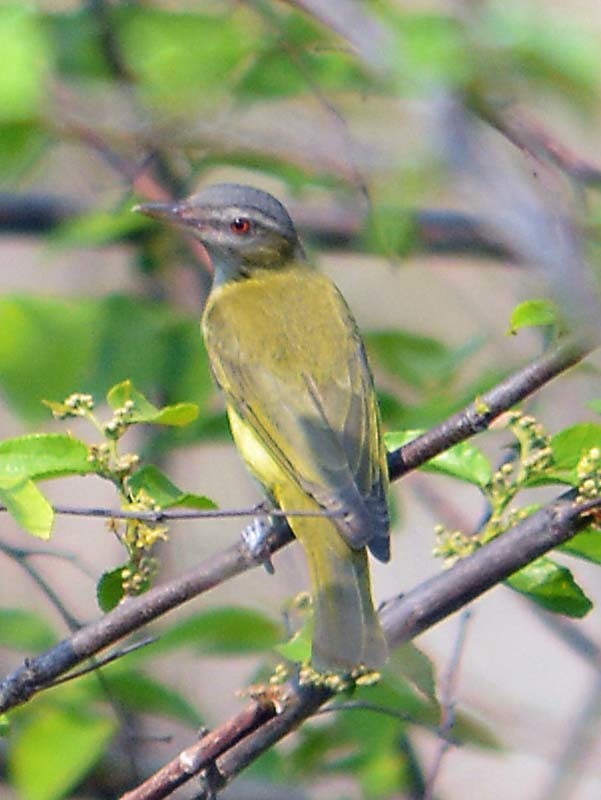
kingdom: Animalia
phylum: Chordata
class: Aves
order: Passeriformes
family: Vireonidae
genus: Vireo
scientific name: Vireo flavoviridis
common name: Yellow-green vireo
